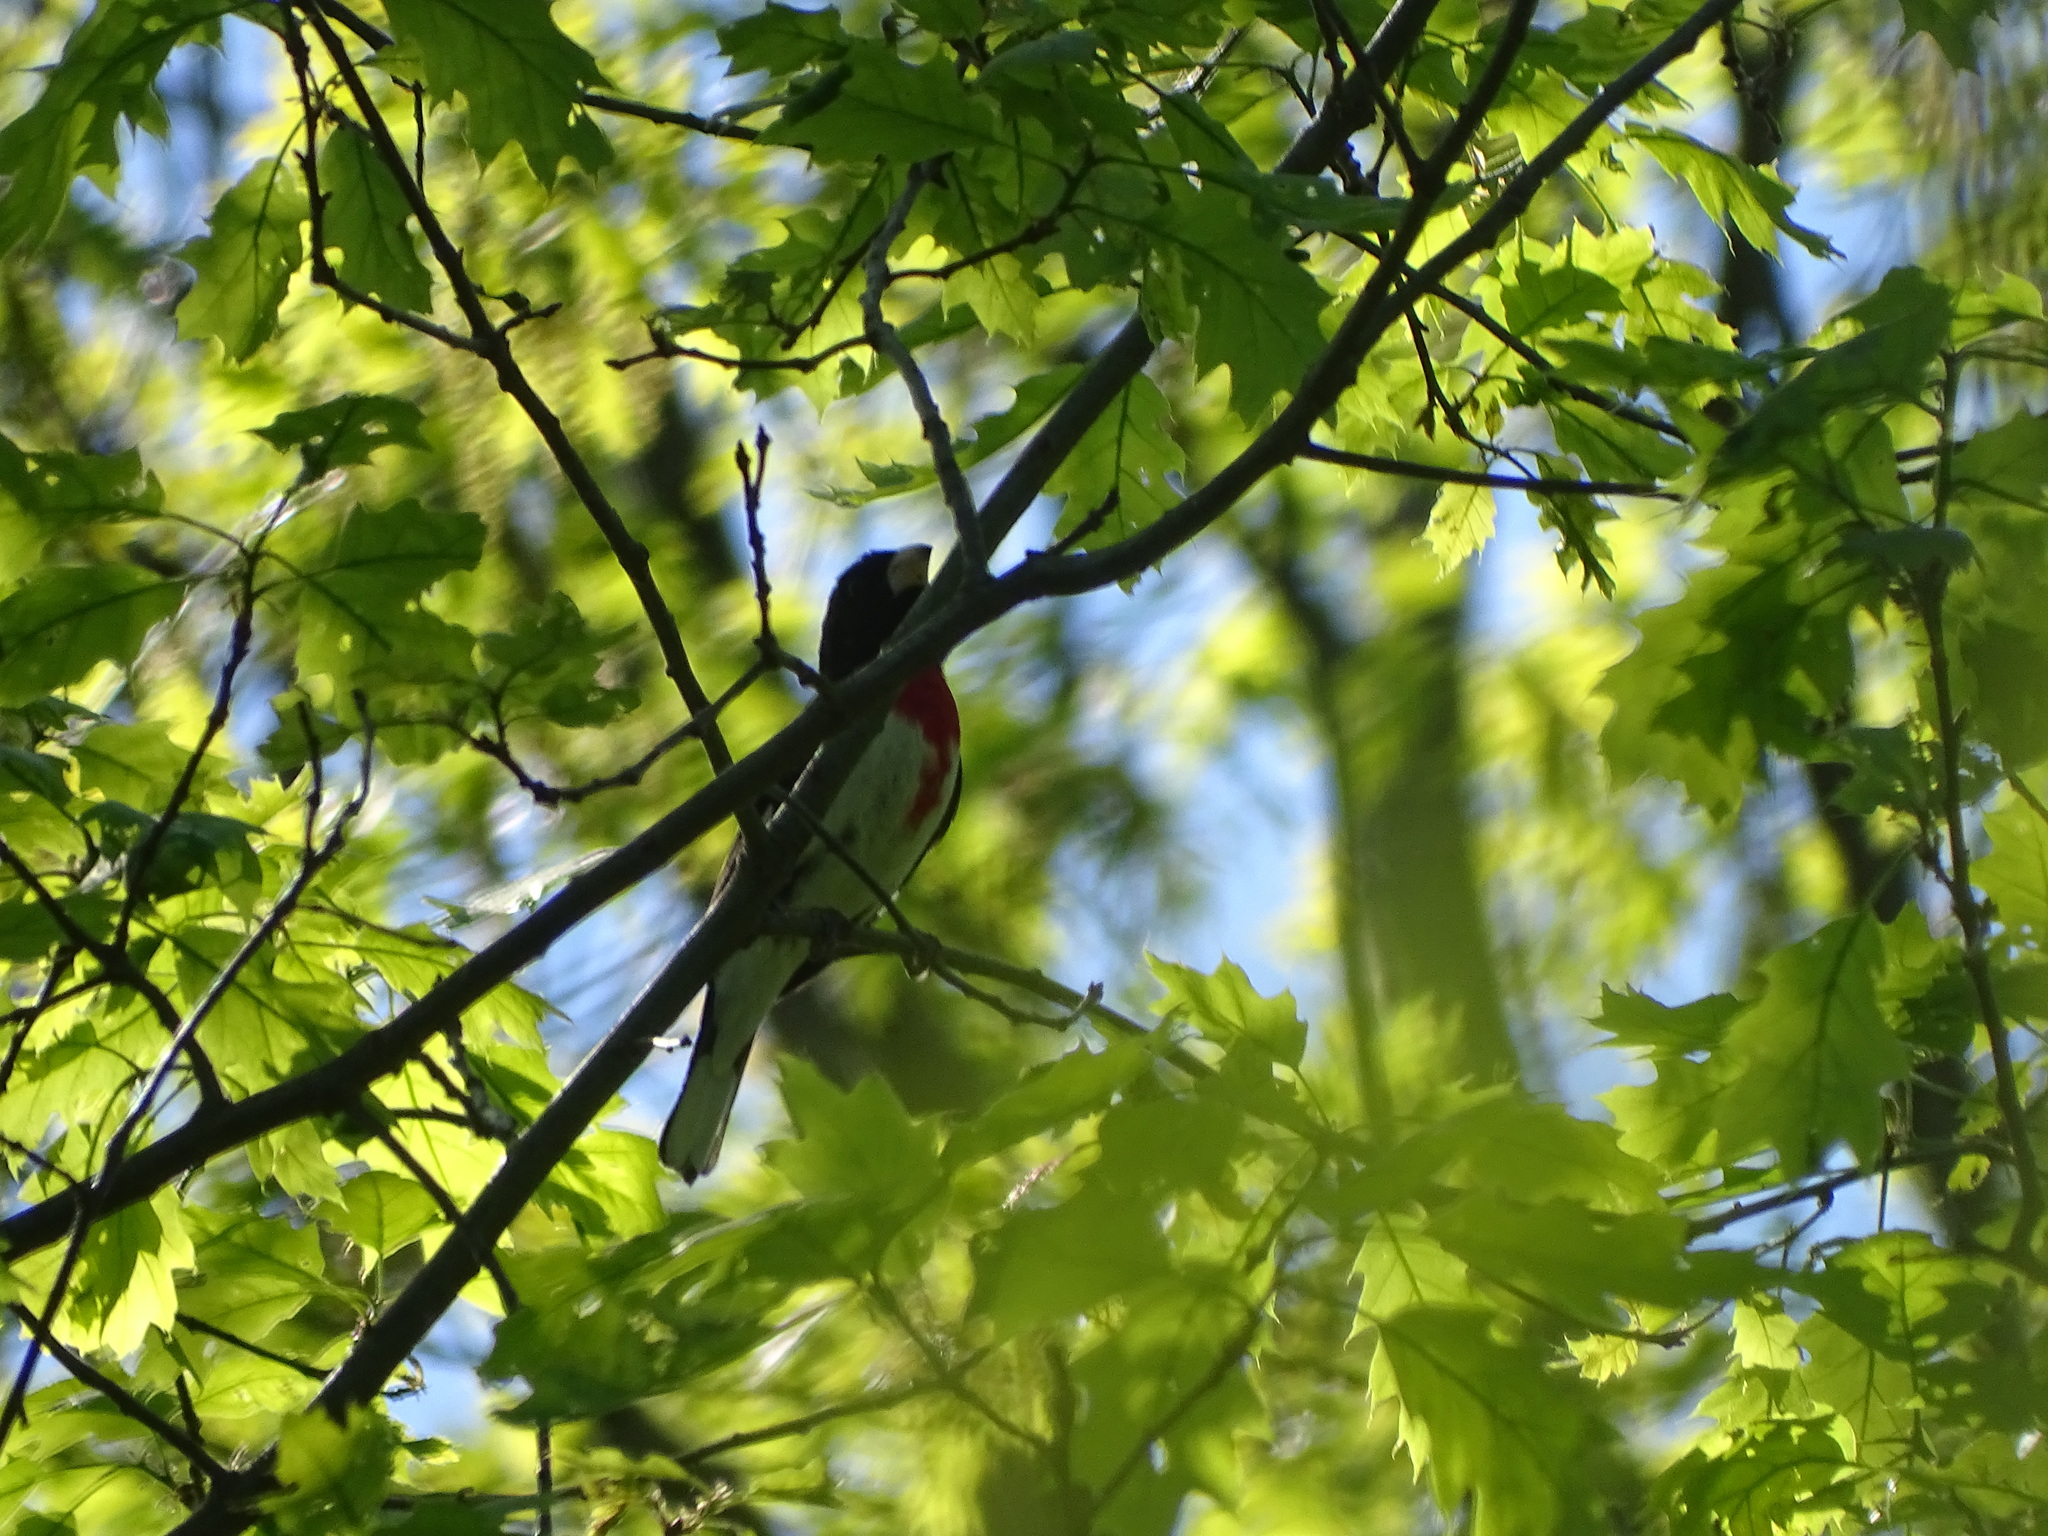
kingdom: Animalia
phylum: Chordata
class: Aves
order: Passeriformes
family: Cardinalidae
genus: Pheucticus
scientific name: Pheucticus ludovicianus
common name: Rose-breasted grosbeak
